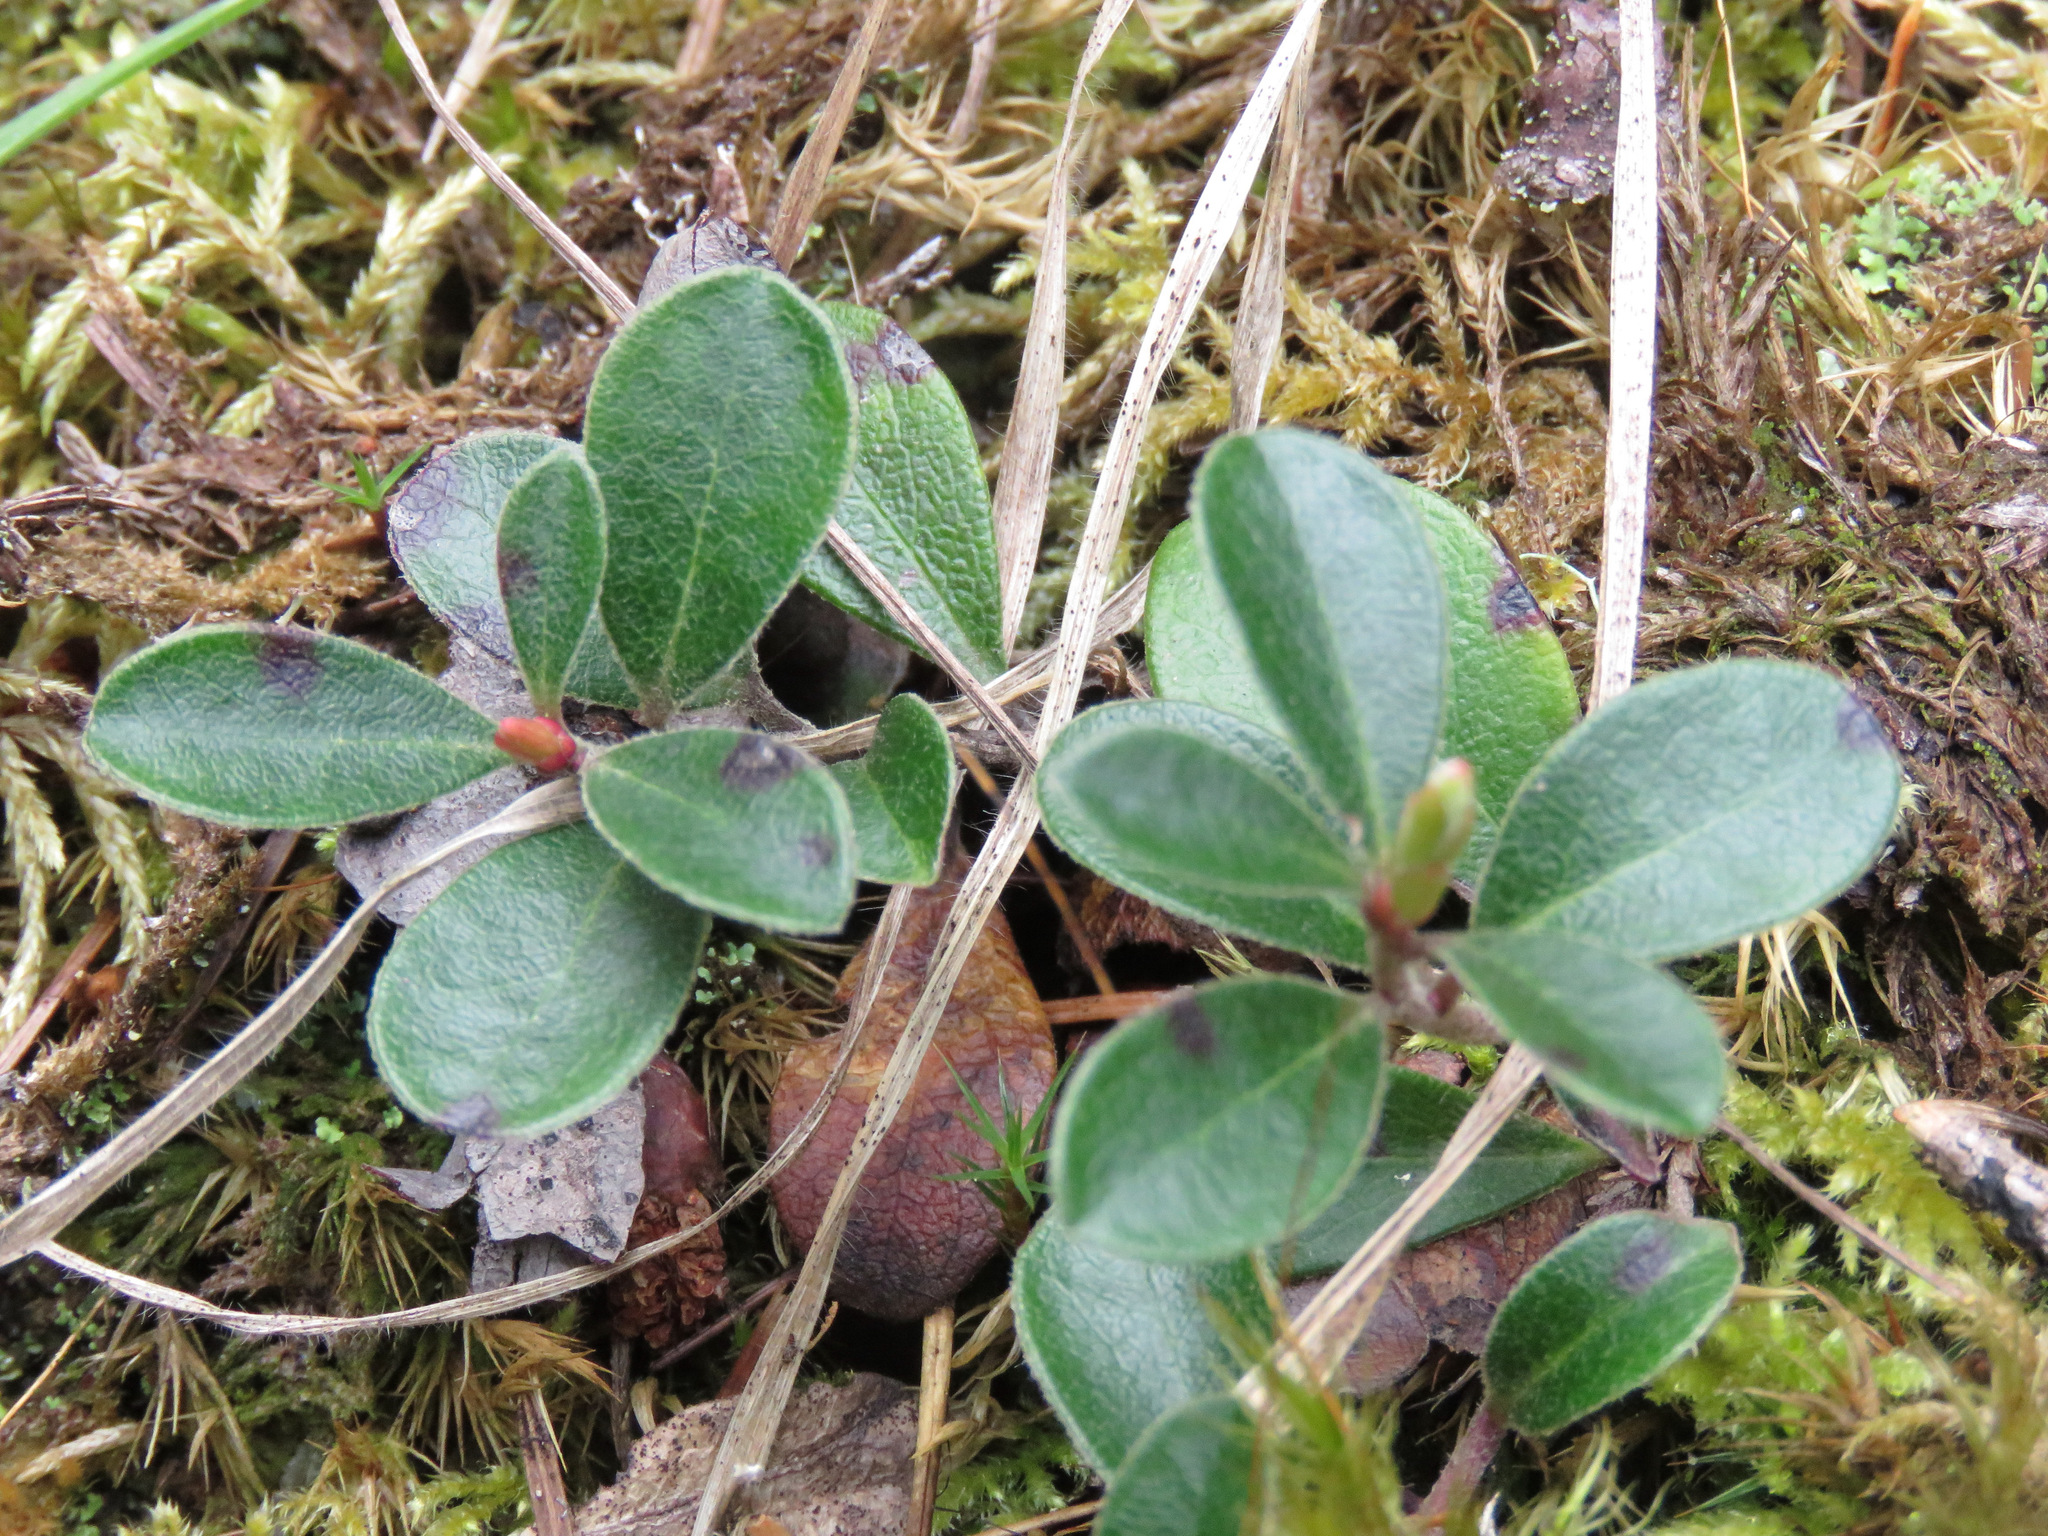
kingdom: Plantae
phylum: Tracheophyta
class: Magnoliopsida
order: Ericales
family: Ericaceae
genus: Arctostaphylos
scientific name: Arctostaphylos uva-ursi
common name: Bearberry
